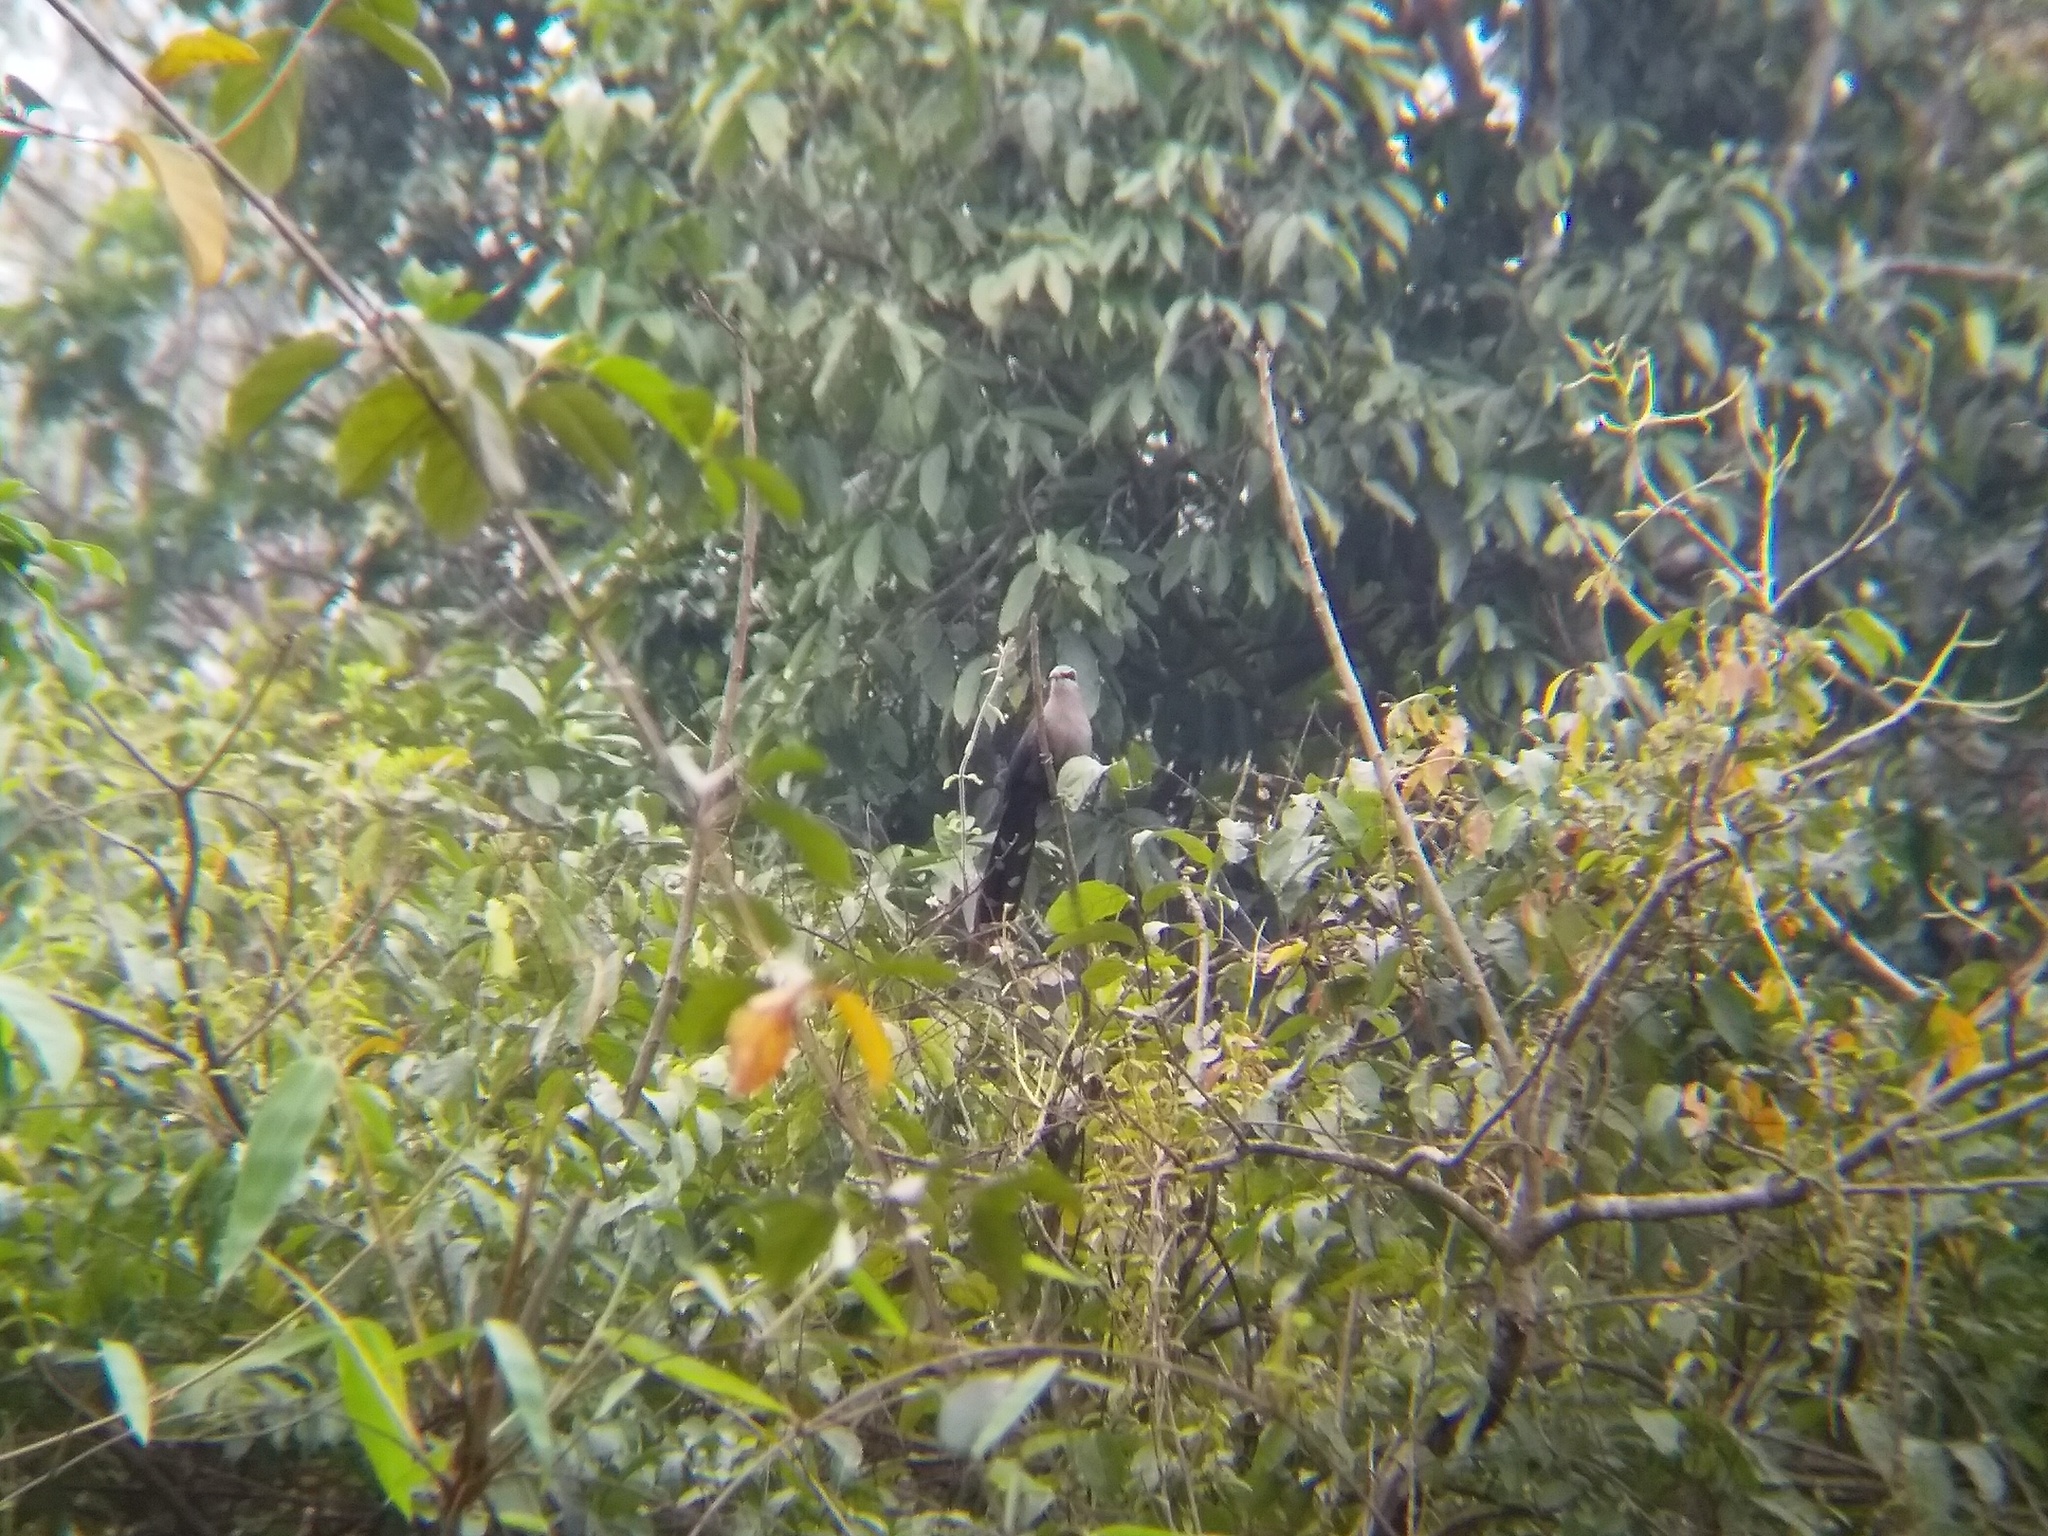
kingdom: Animalia
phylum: Chordata
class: Aves
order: Cuculiformes
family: Cuculidae
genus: Rhopodytes
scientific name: Rhopodytes tristis
